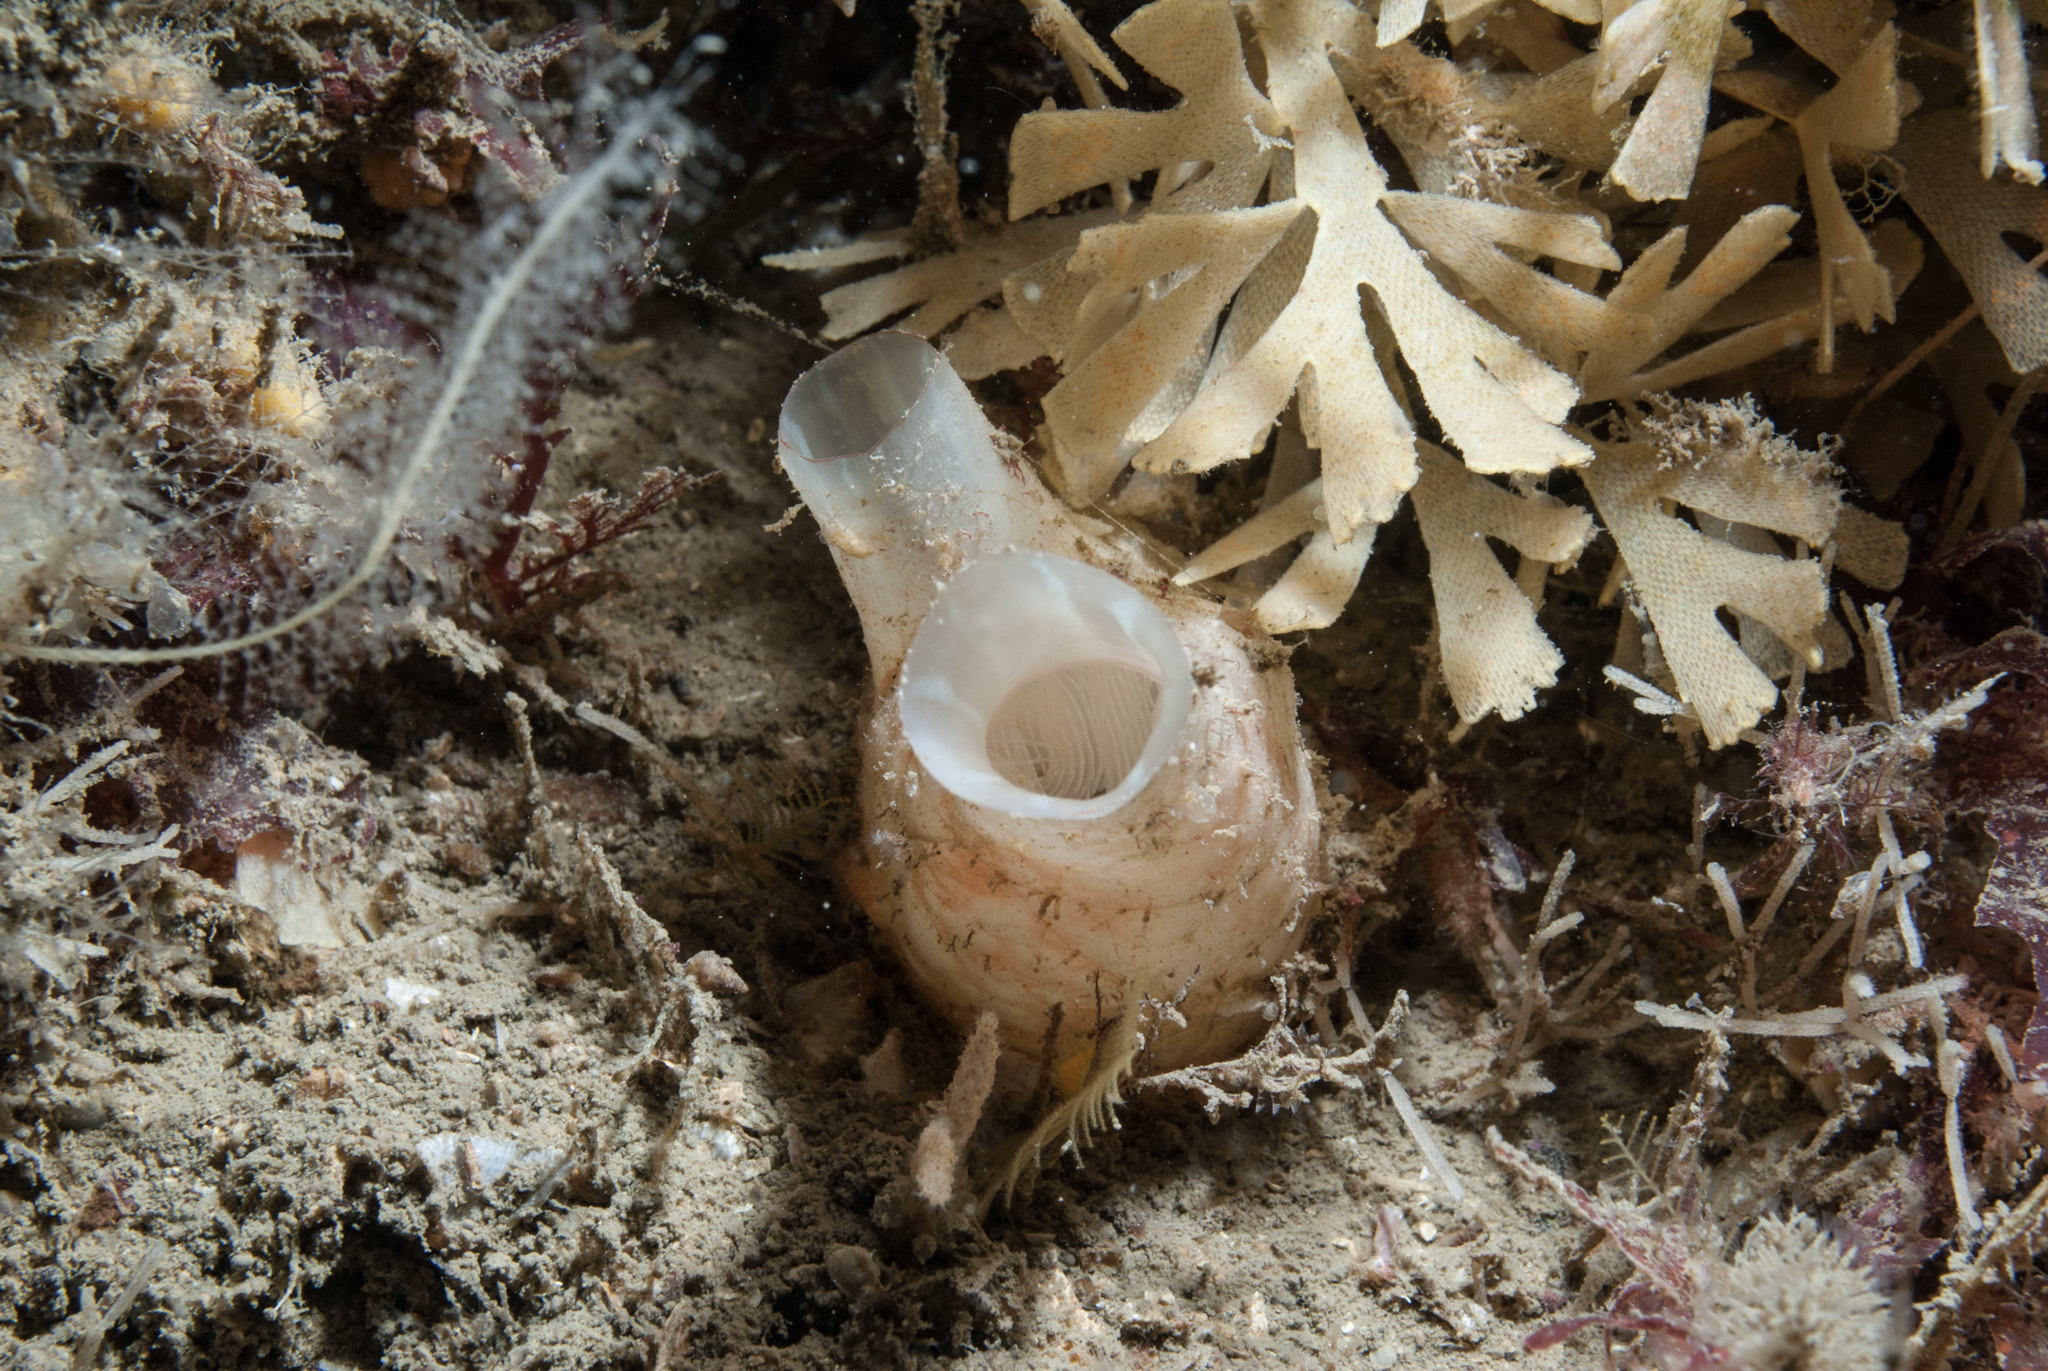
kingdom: Animalia
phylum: Chordata
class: Ascidiacea
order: Stolidobranchia
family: Styelidae
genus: Polycarpa
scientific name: Polycarpa pomaria
